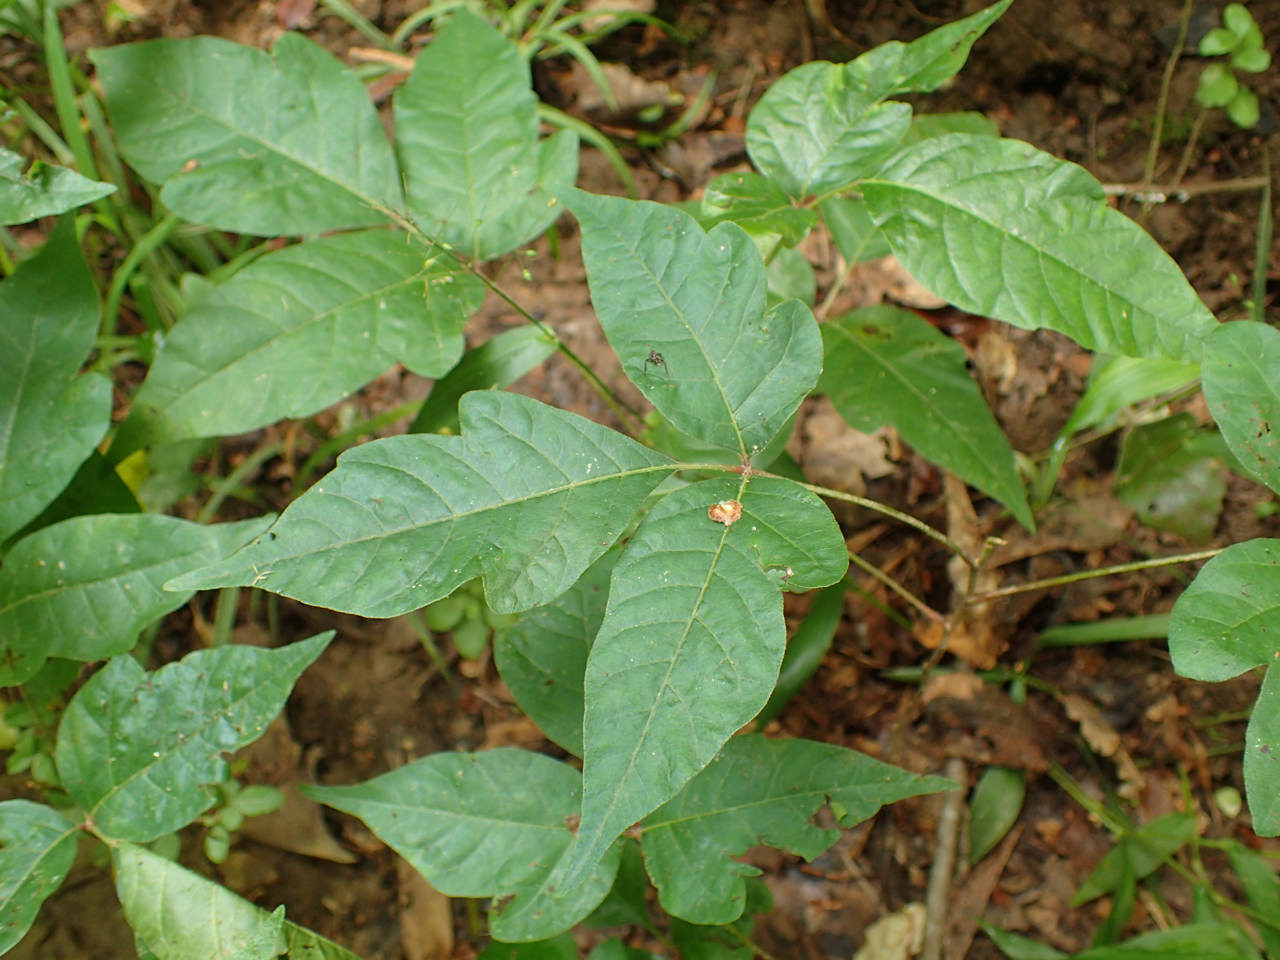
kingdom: Plantae
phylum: Tracheophyta
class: Magnoliopsida
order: Sapindales
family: Anacardiaceae
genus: Toxicodendron
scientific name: Toxicodendron radicans
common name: Poison ivy
